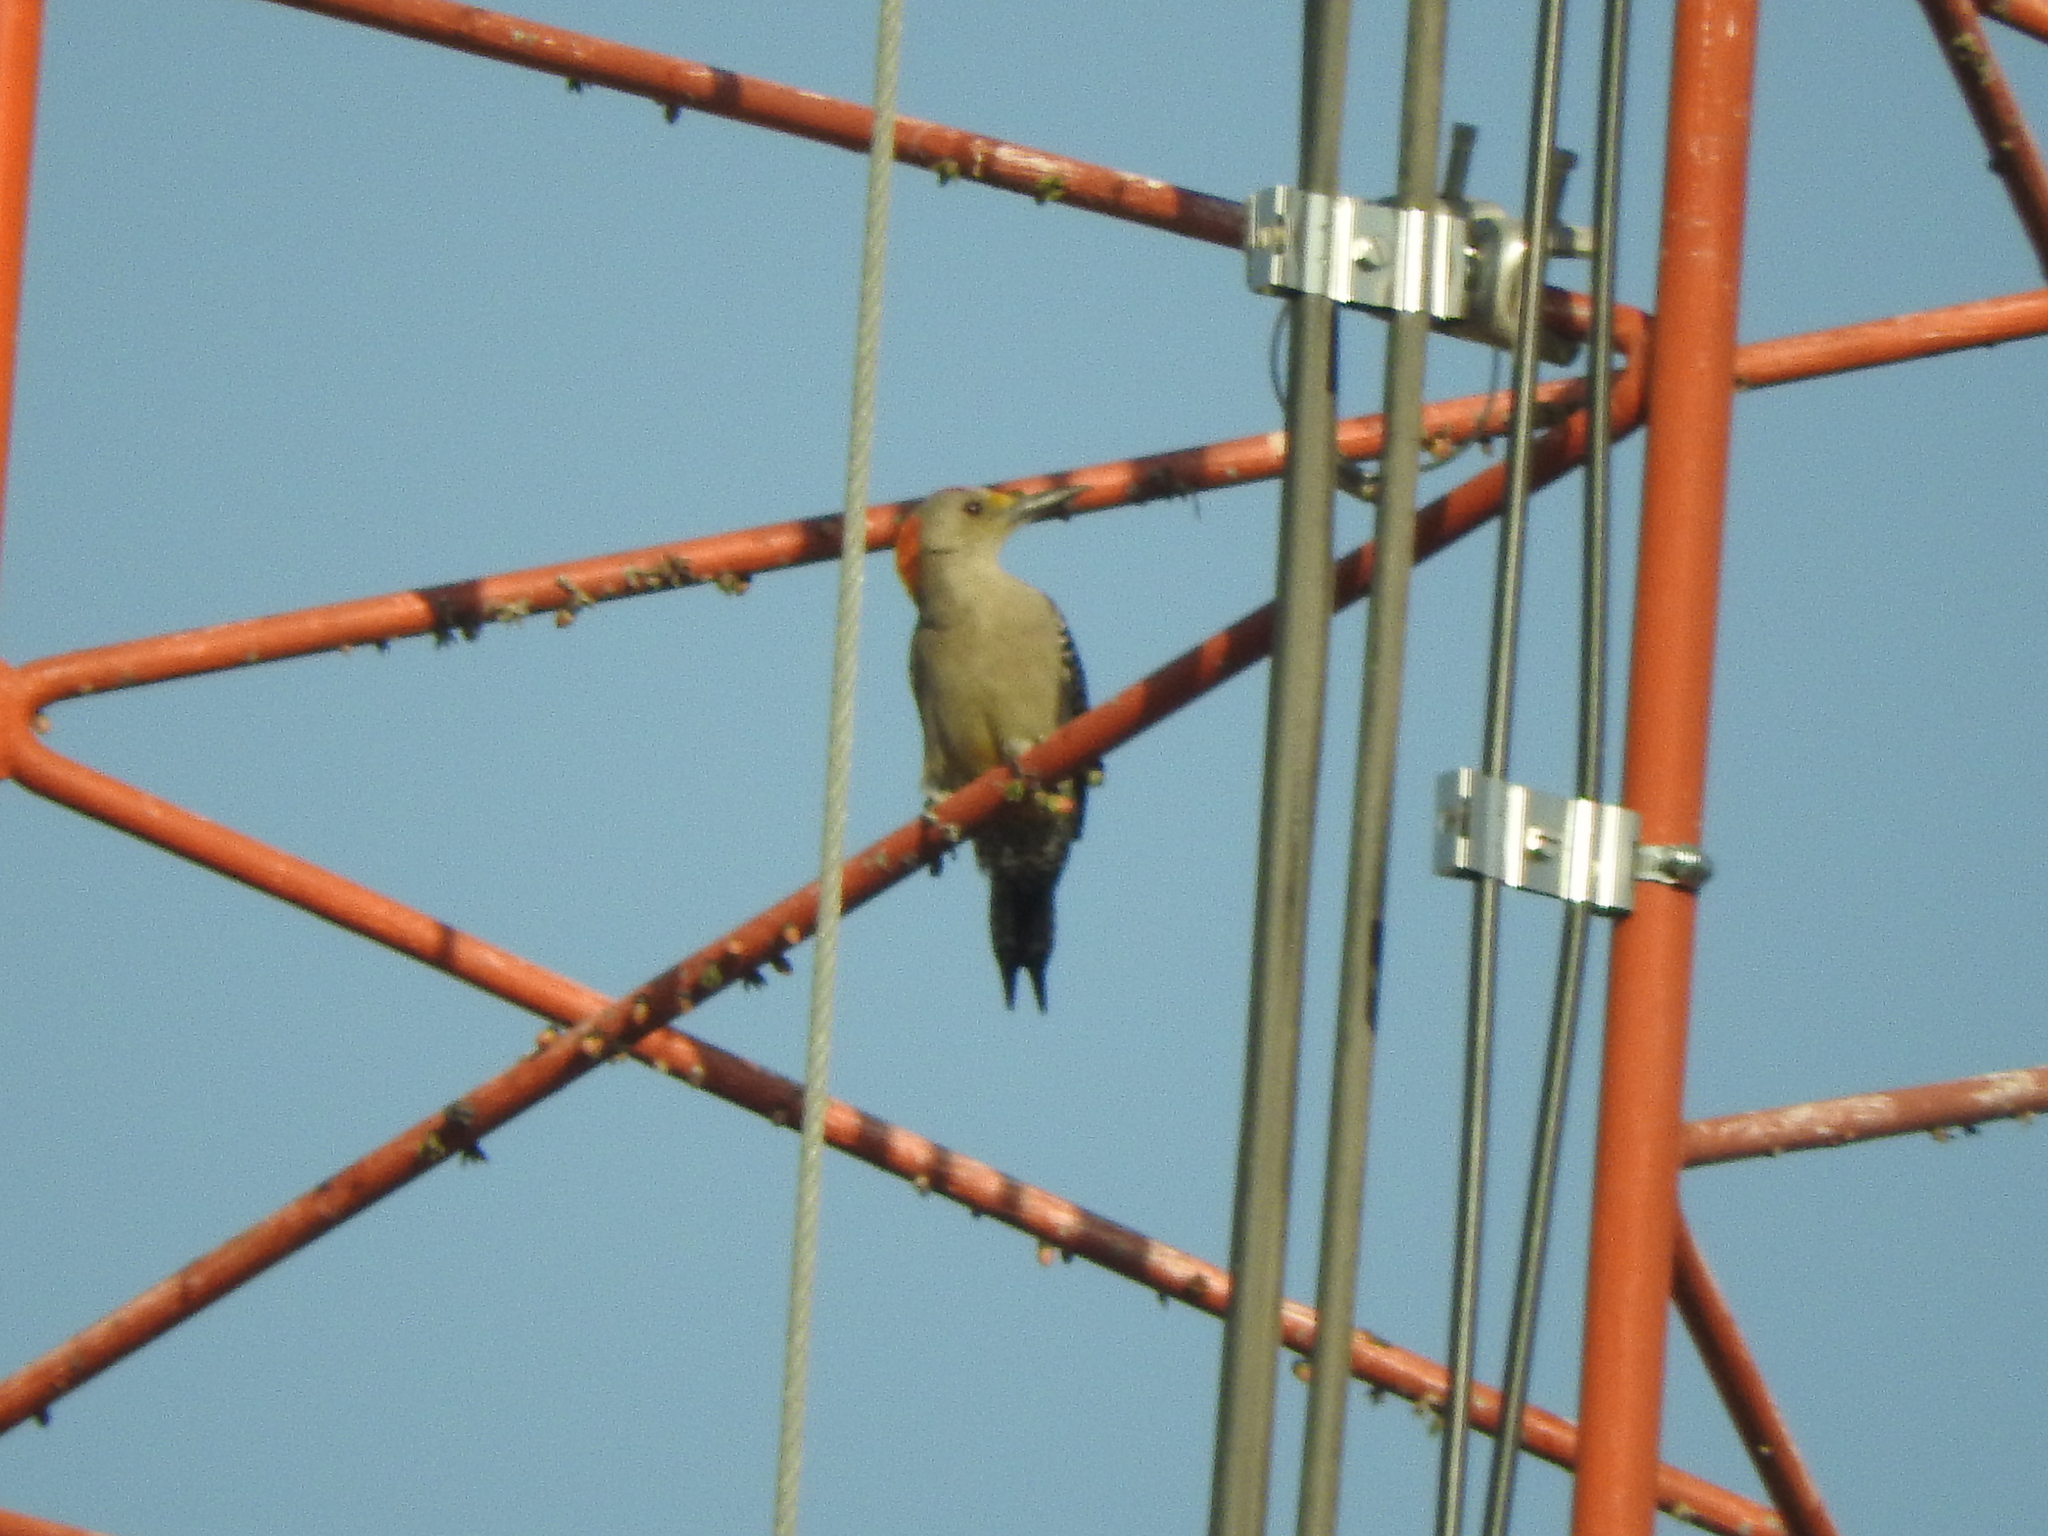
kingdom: Animalia
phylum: Chordata
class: Aves
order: Piciformes
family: Picidae
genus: Melanerpes
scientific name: Melanerpes aurifrons
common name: Golden-fronted woodpecker
